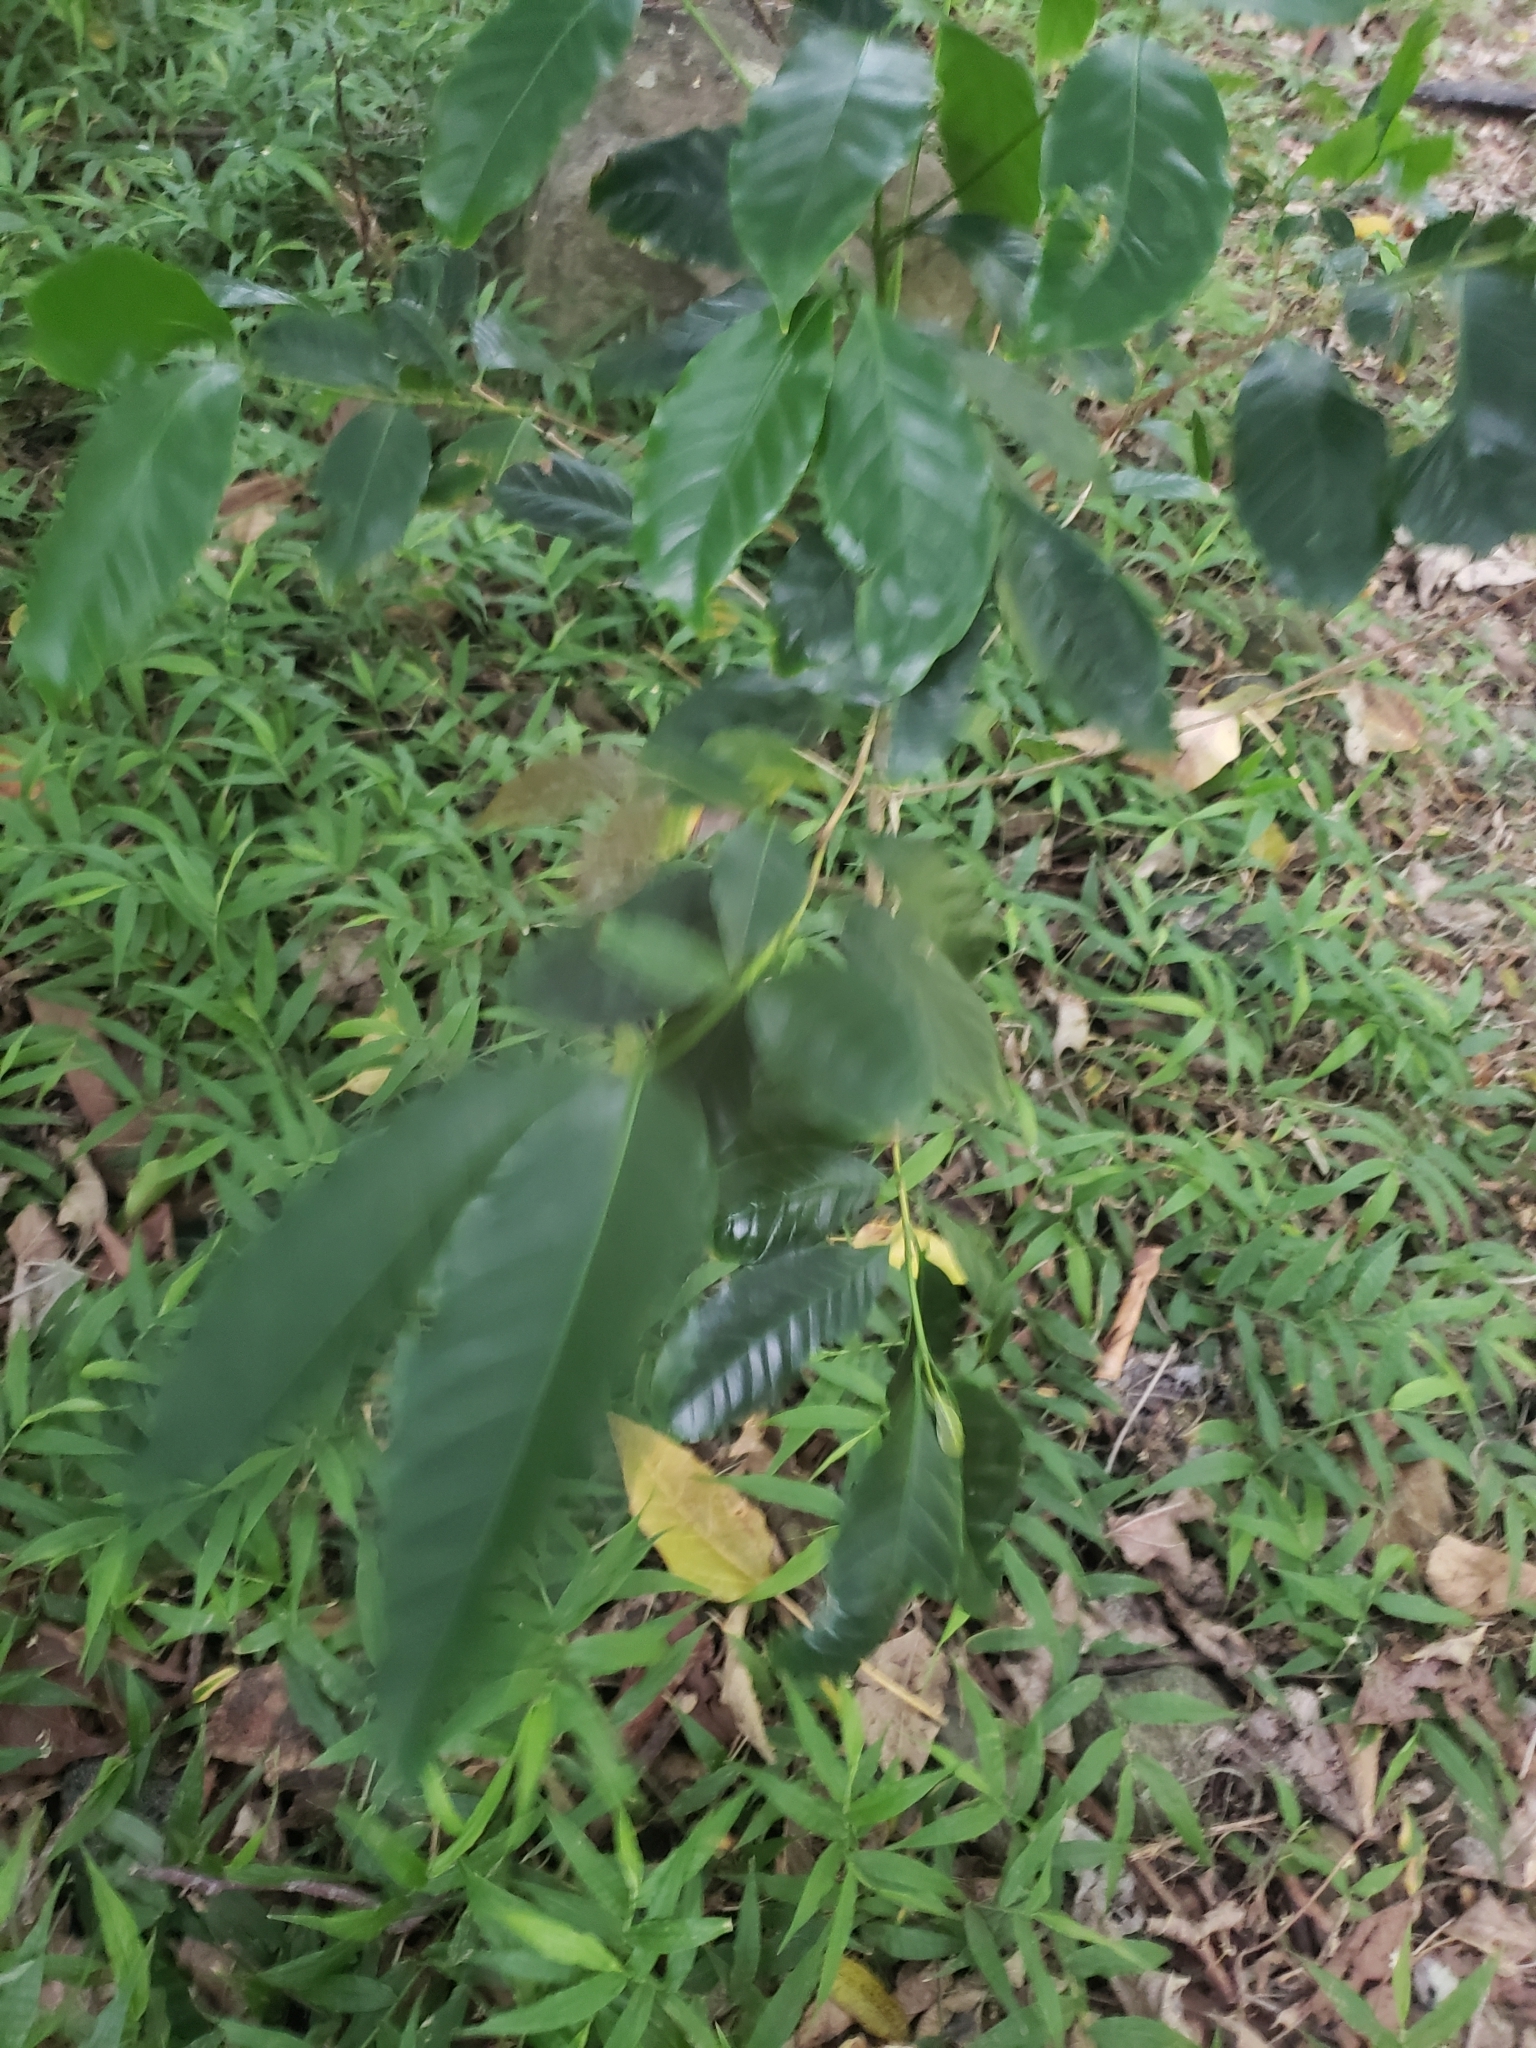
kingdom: Plantae
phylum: Tracheophyta
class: Liliopsida
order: Zingiberales
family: Cannaceae
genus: Canna
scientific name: Canna indica
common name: Indian shot
